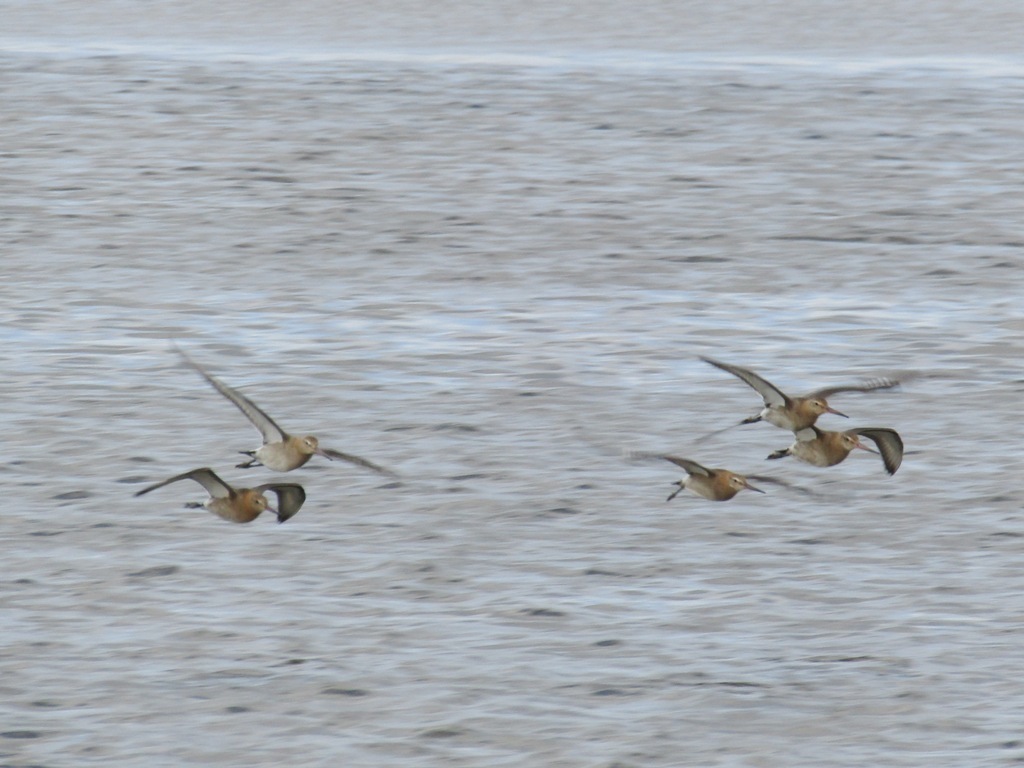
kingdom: Animalia
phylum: Chordata
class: Aves
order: Charadriiformes
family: Scolopacidae
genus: Limosa
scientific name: Limosa limosa
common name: Black-tailed godwit
